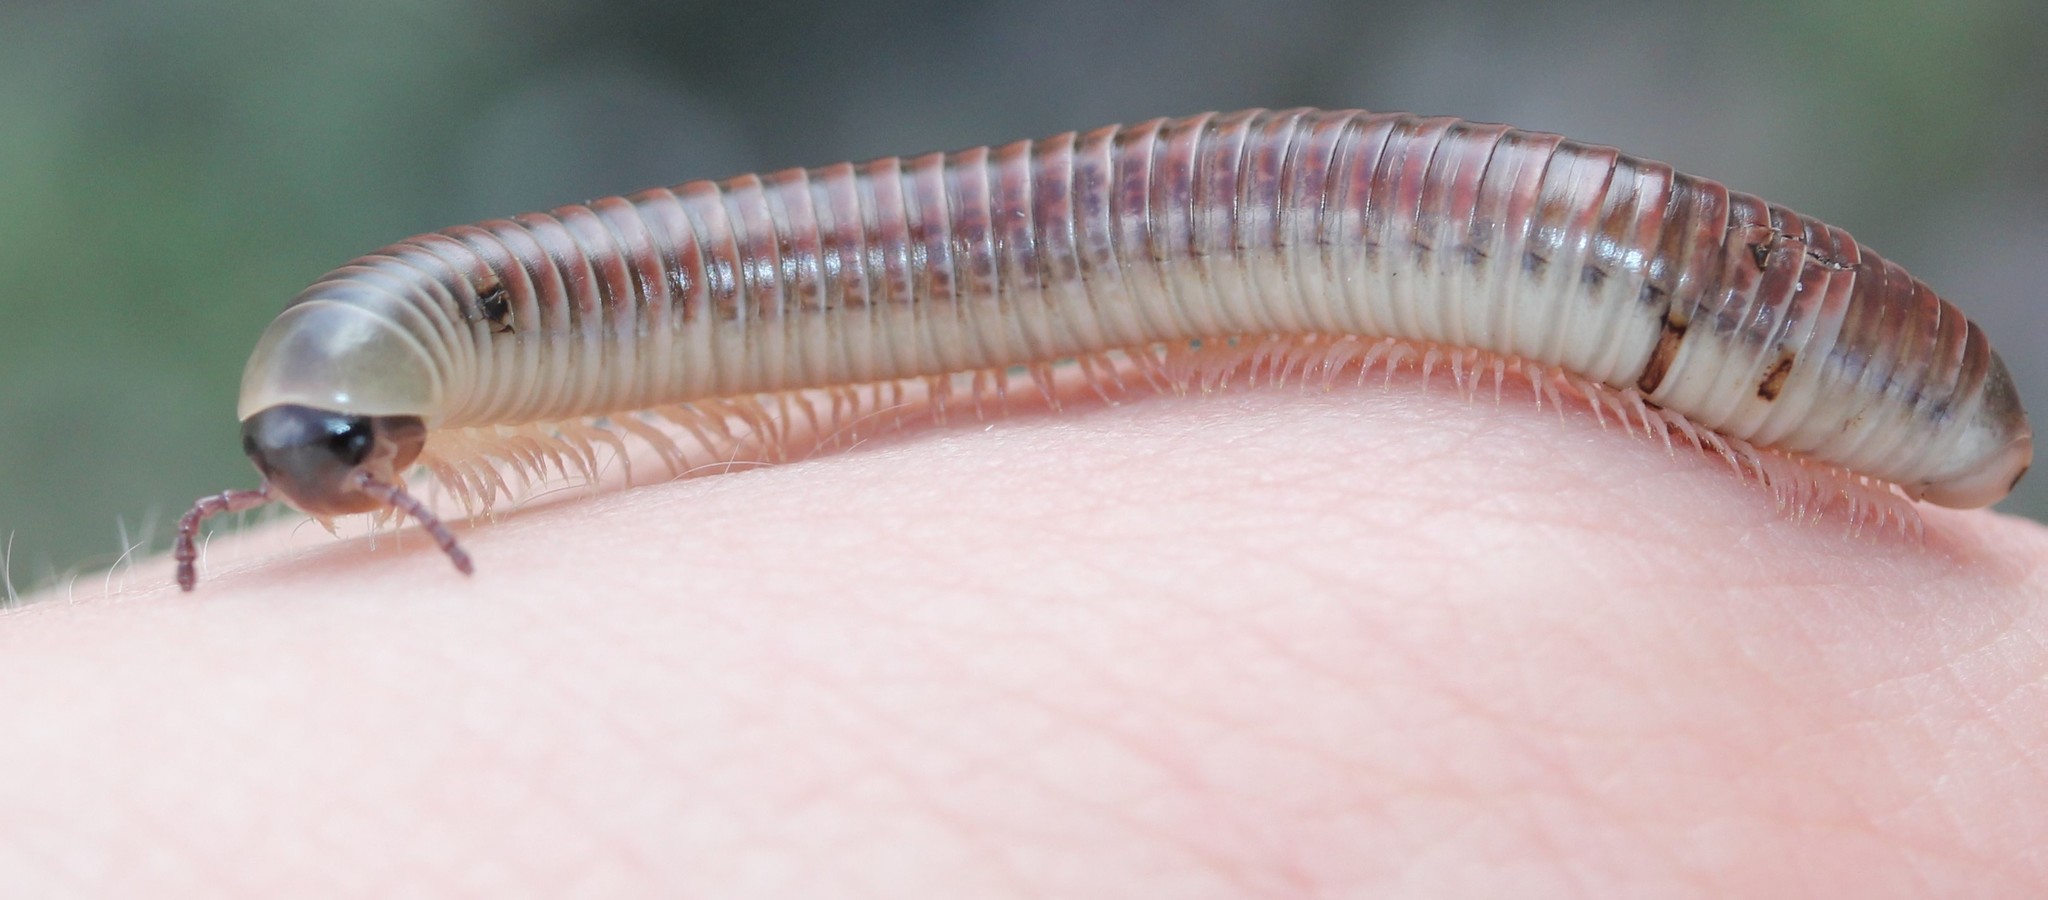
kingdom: Animalia
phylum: Arthropoda
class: Diplopoda
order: Spirobolida
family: Spirobolidae
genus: Chicobolus
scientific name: Chicobolus spinigerus
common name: Florida ivory millipede
